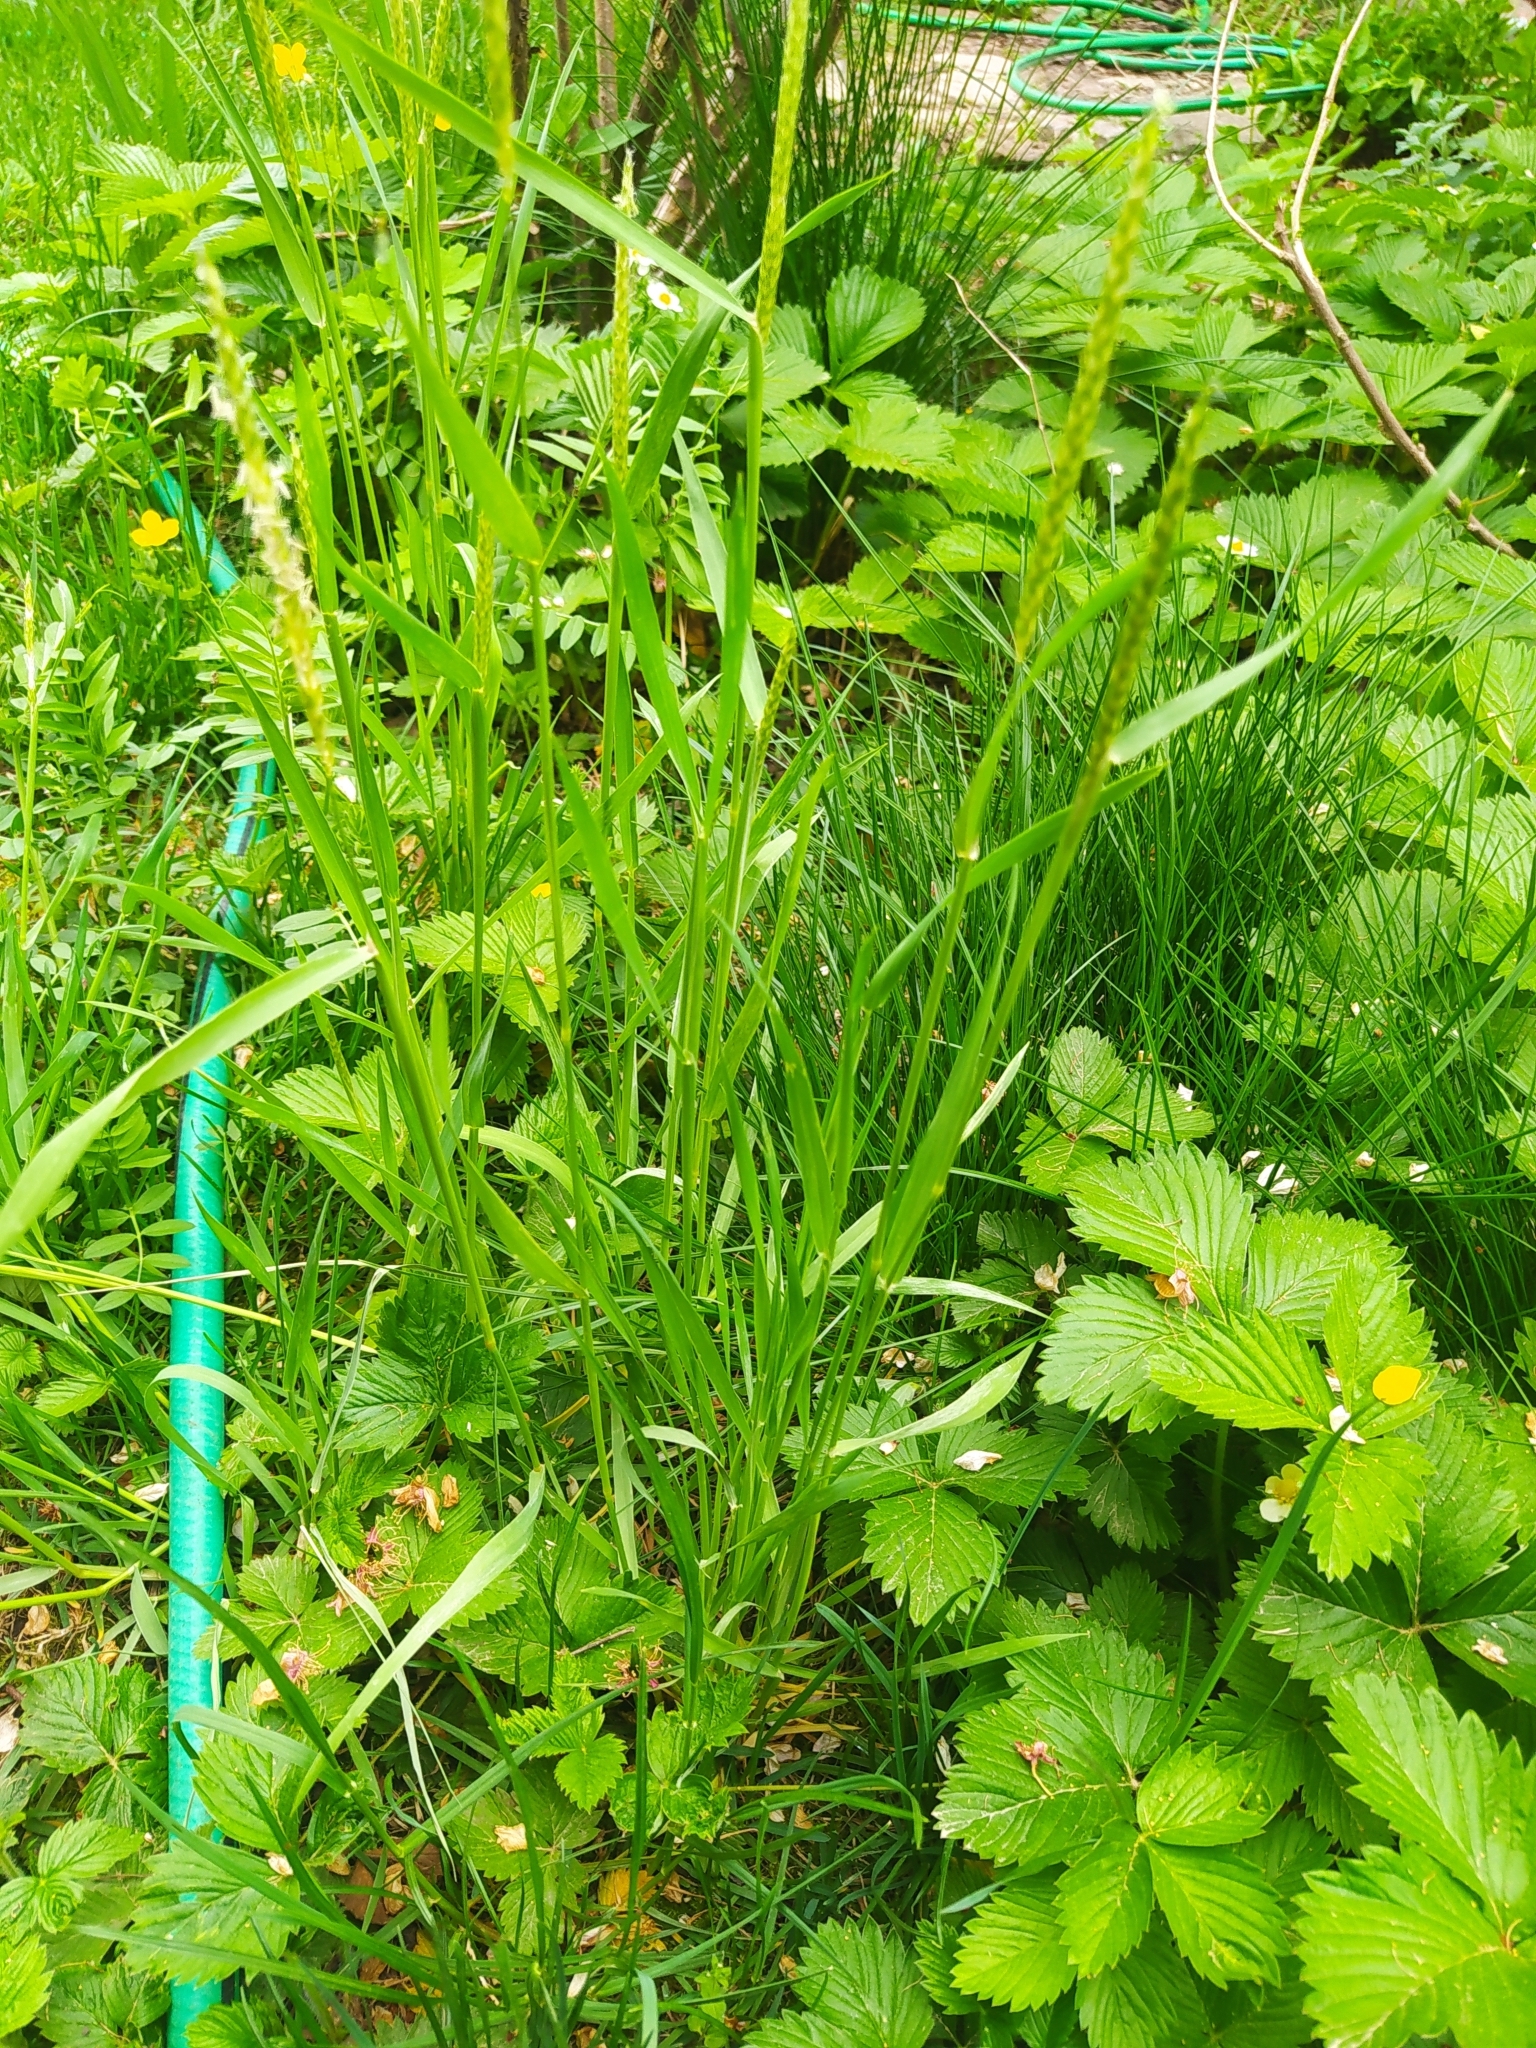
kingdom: Plantae
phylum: Tracheophyta
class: Liliopsida
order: Poales
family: Poaceae
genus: Alopecurus
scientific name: Alopecurus myosuroides
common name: Black-grass
